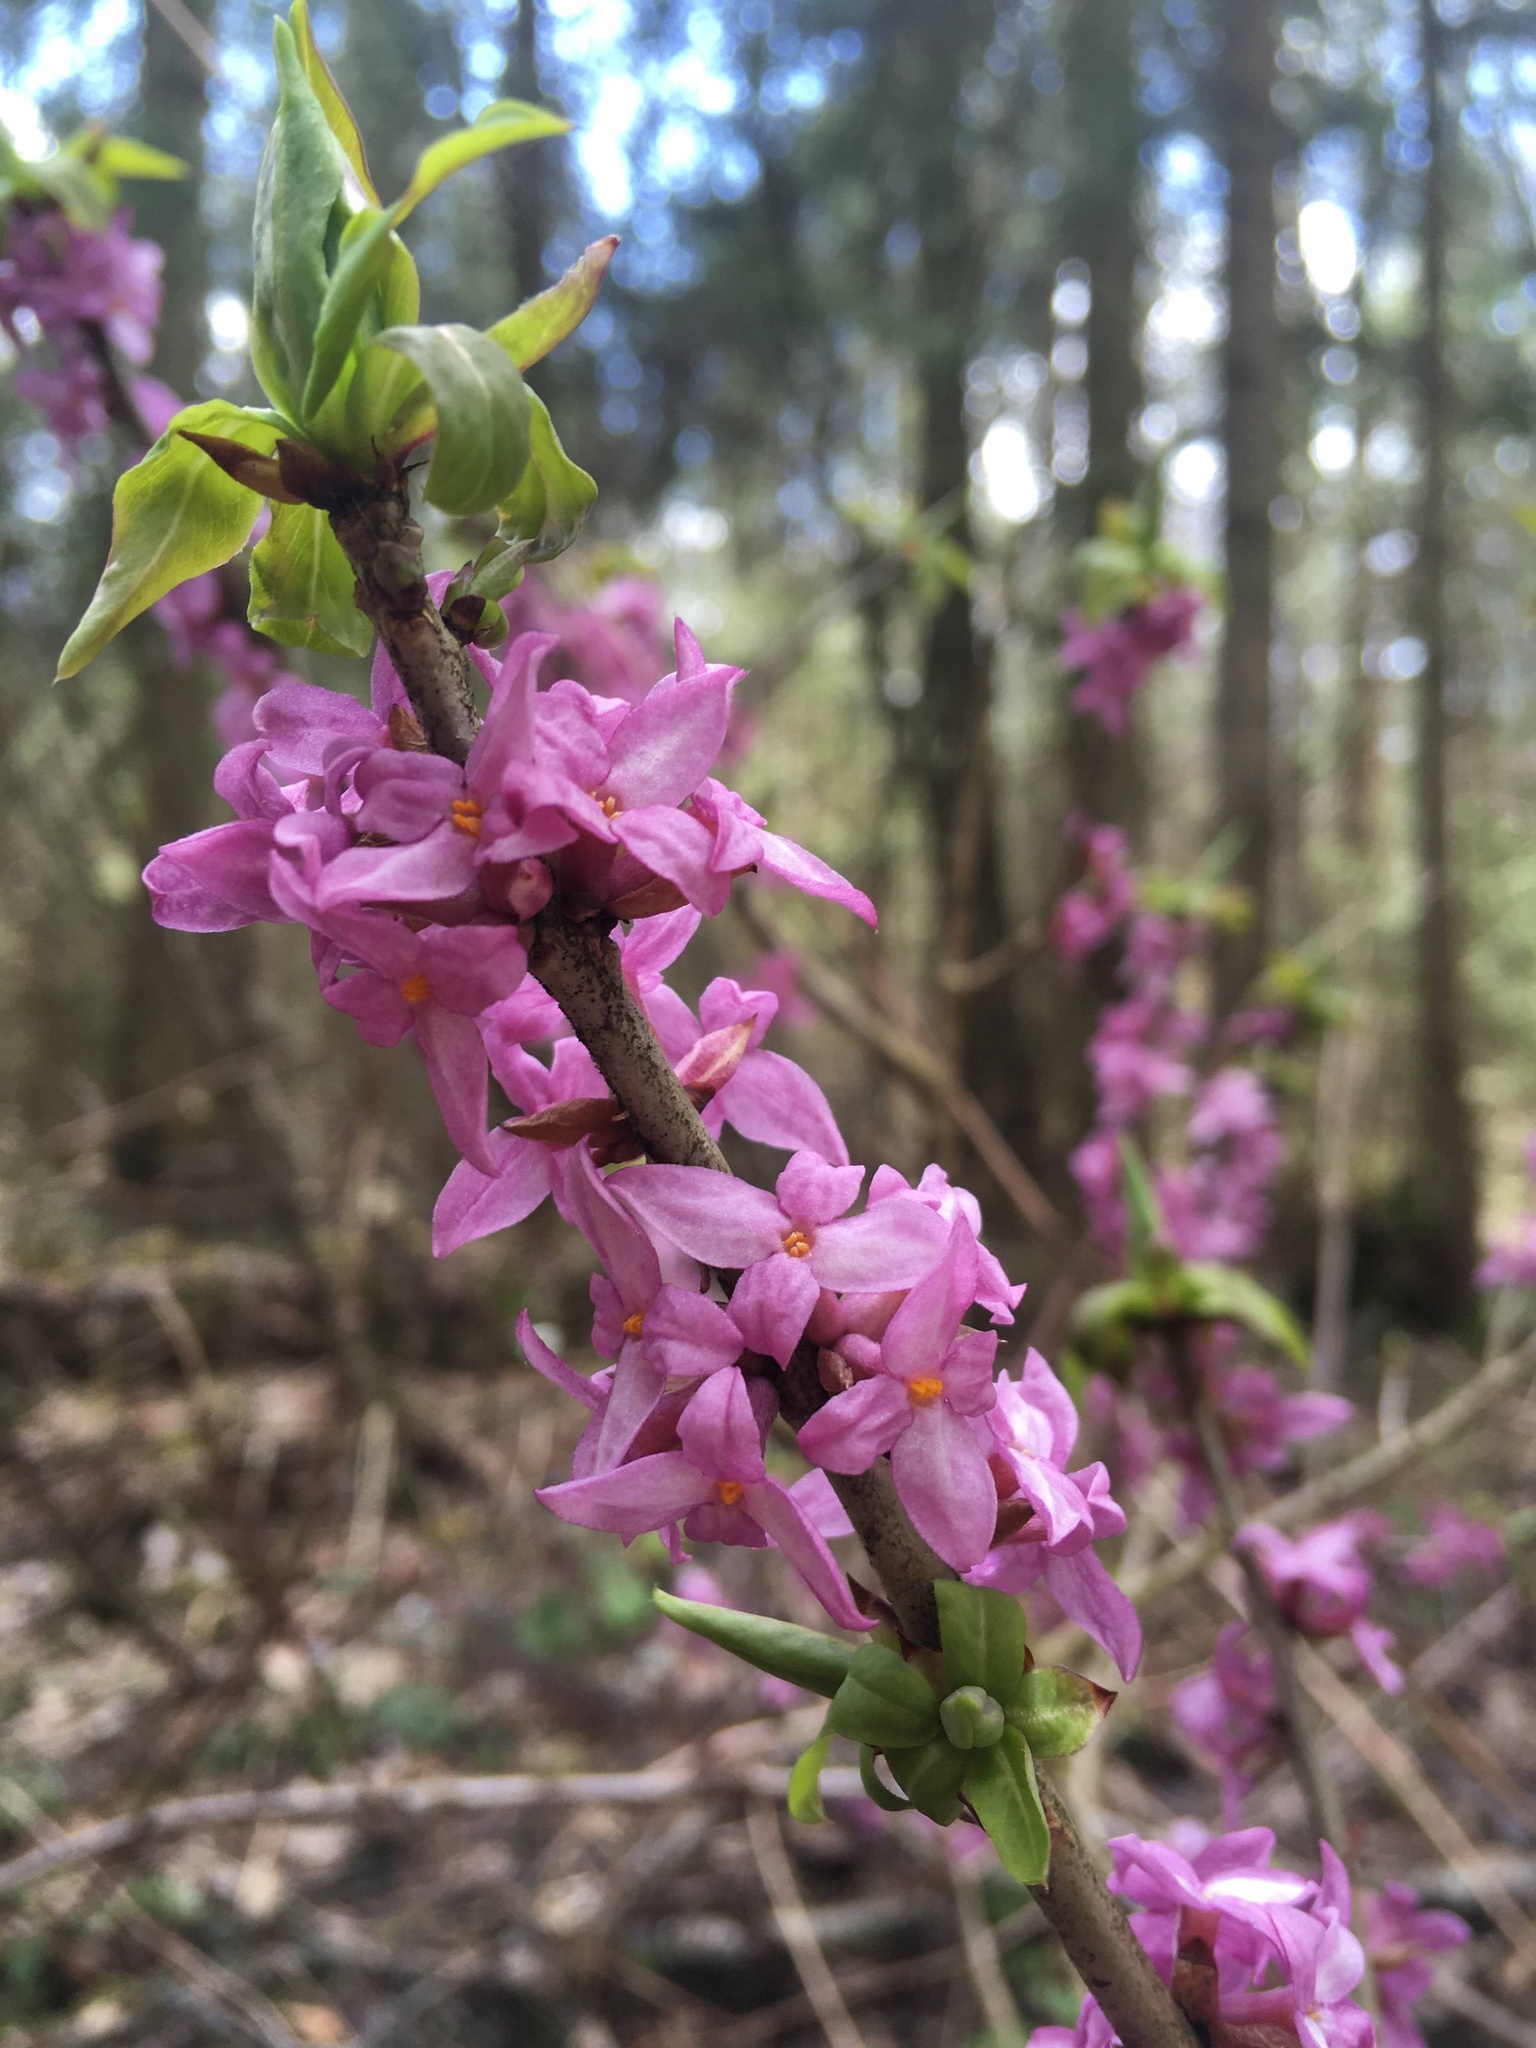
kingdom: Plantae
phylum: Tracheophyta
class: Magnoliopsida
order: Malvales
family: Thymelaeaceae
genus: Daphne
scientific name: Daphne mezereum
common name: Mezereon
